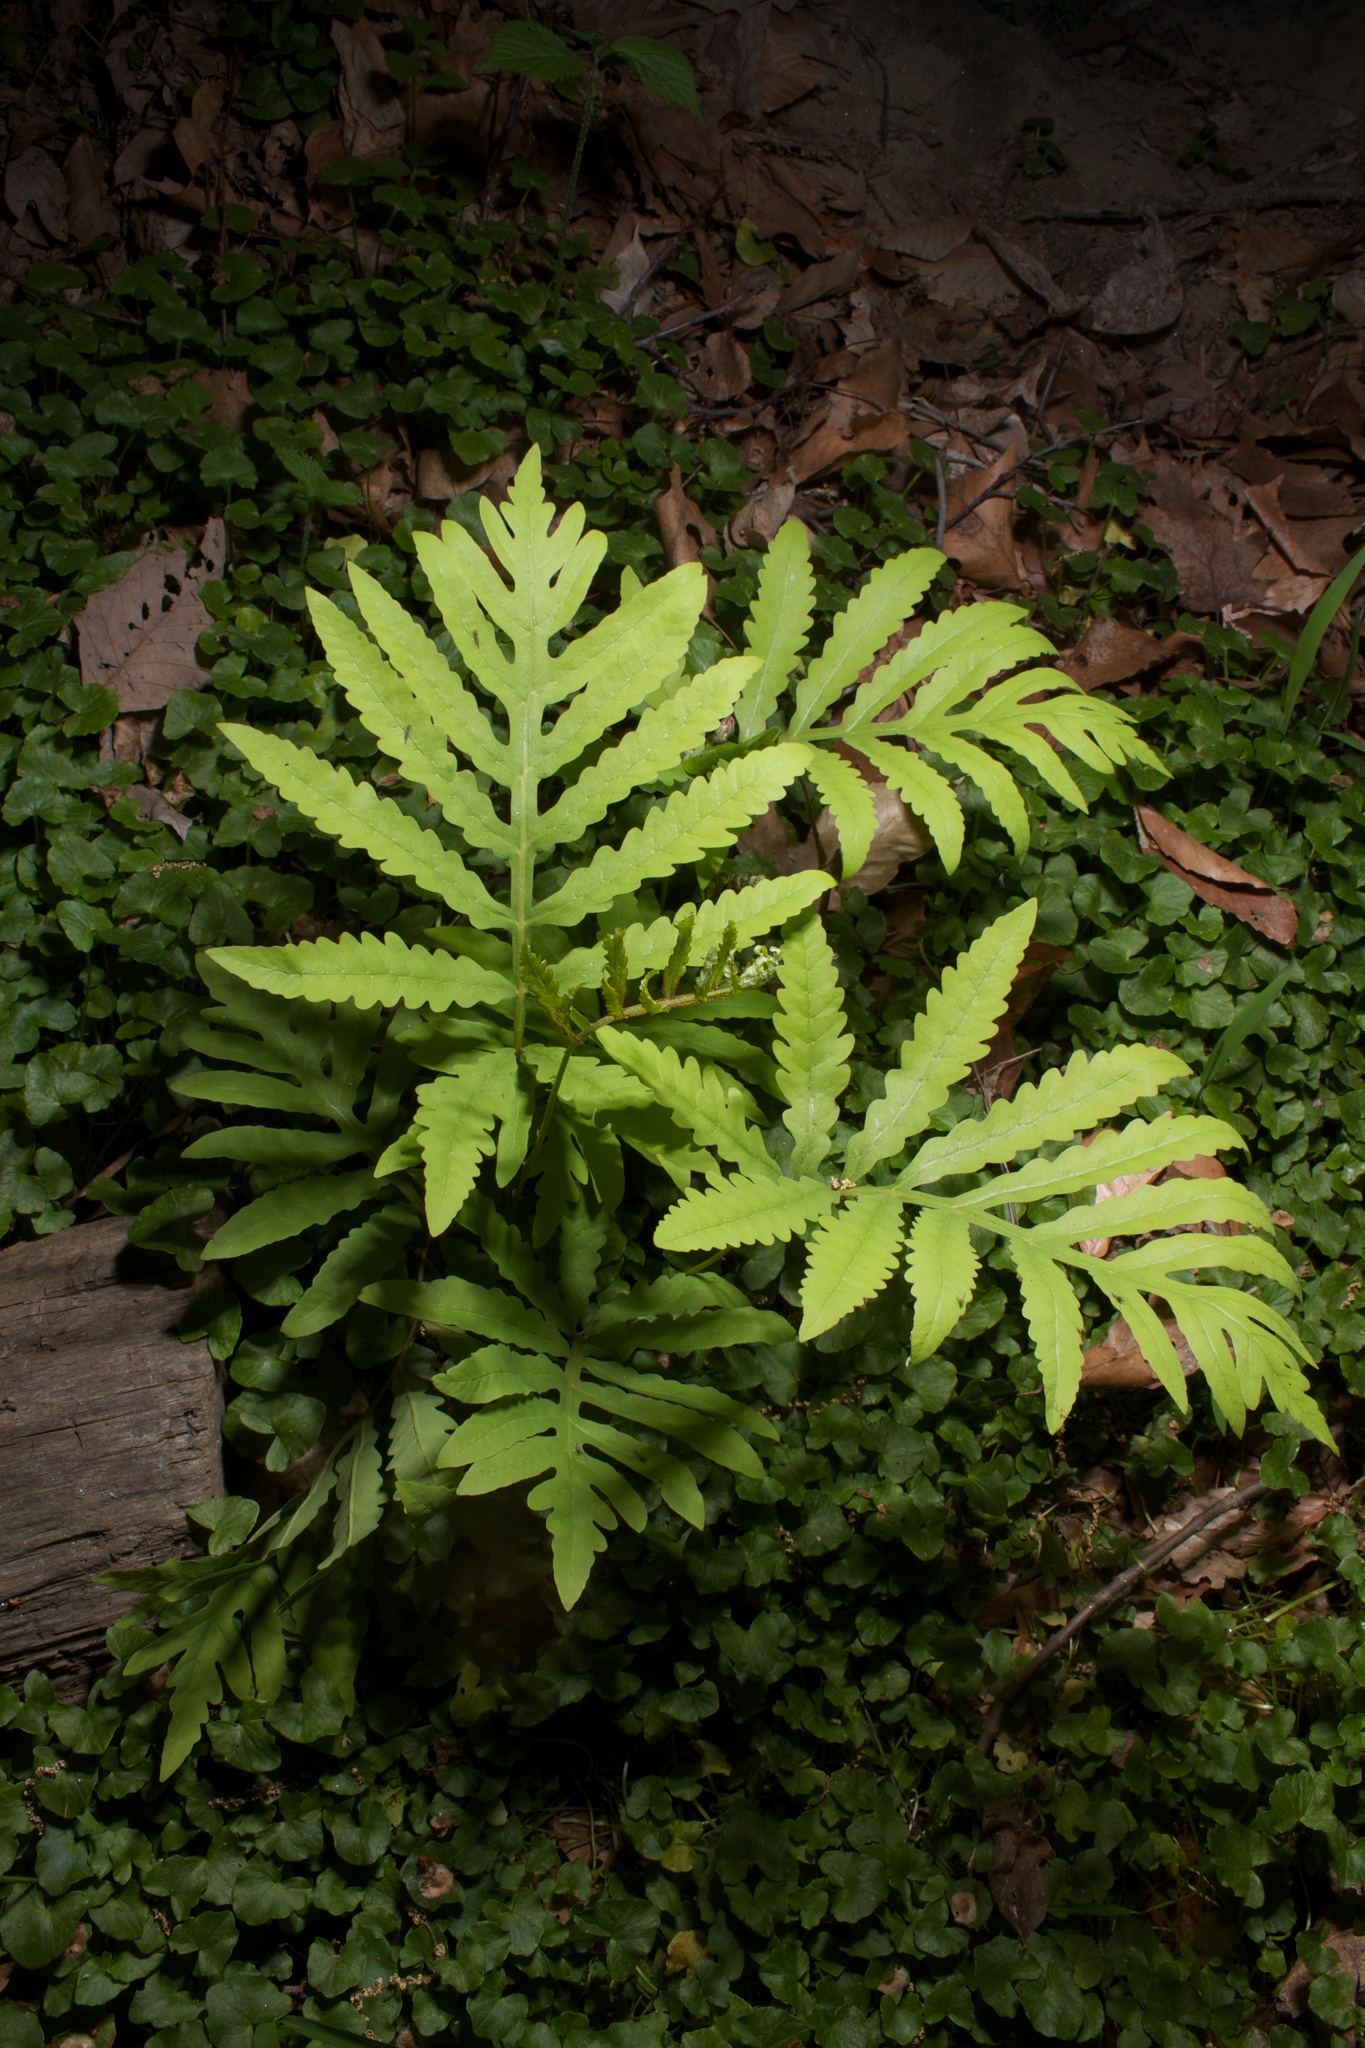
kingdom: Plantae
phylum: Tracheophyta
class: Polypodiopsida
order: Polypodiales
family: Onocleaceae
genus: Onoclea
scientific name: Onoclea sensibilis
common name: Sensitive fern
